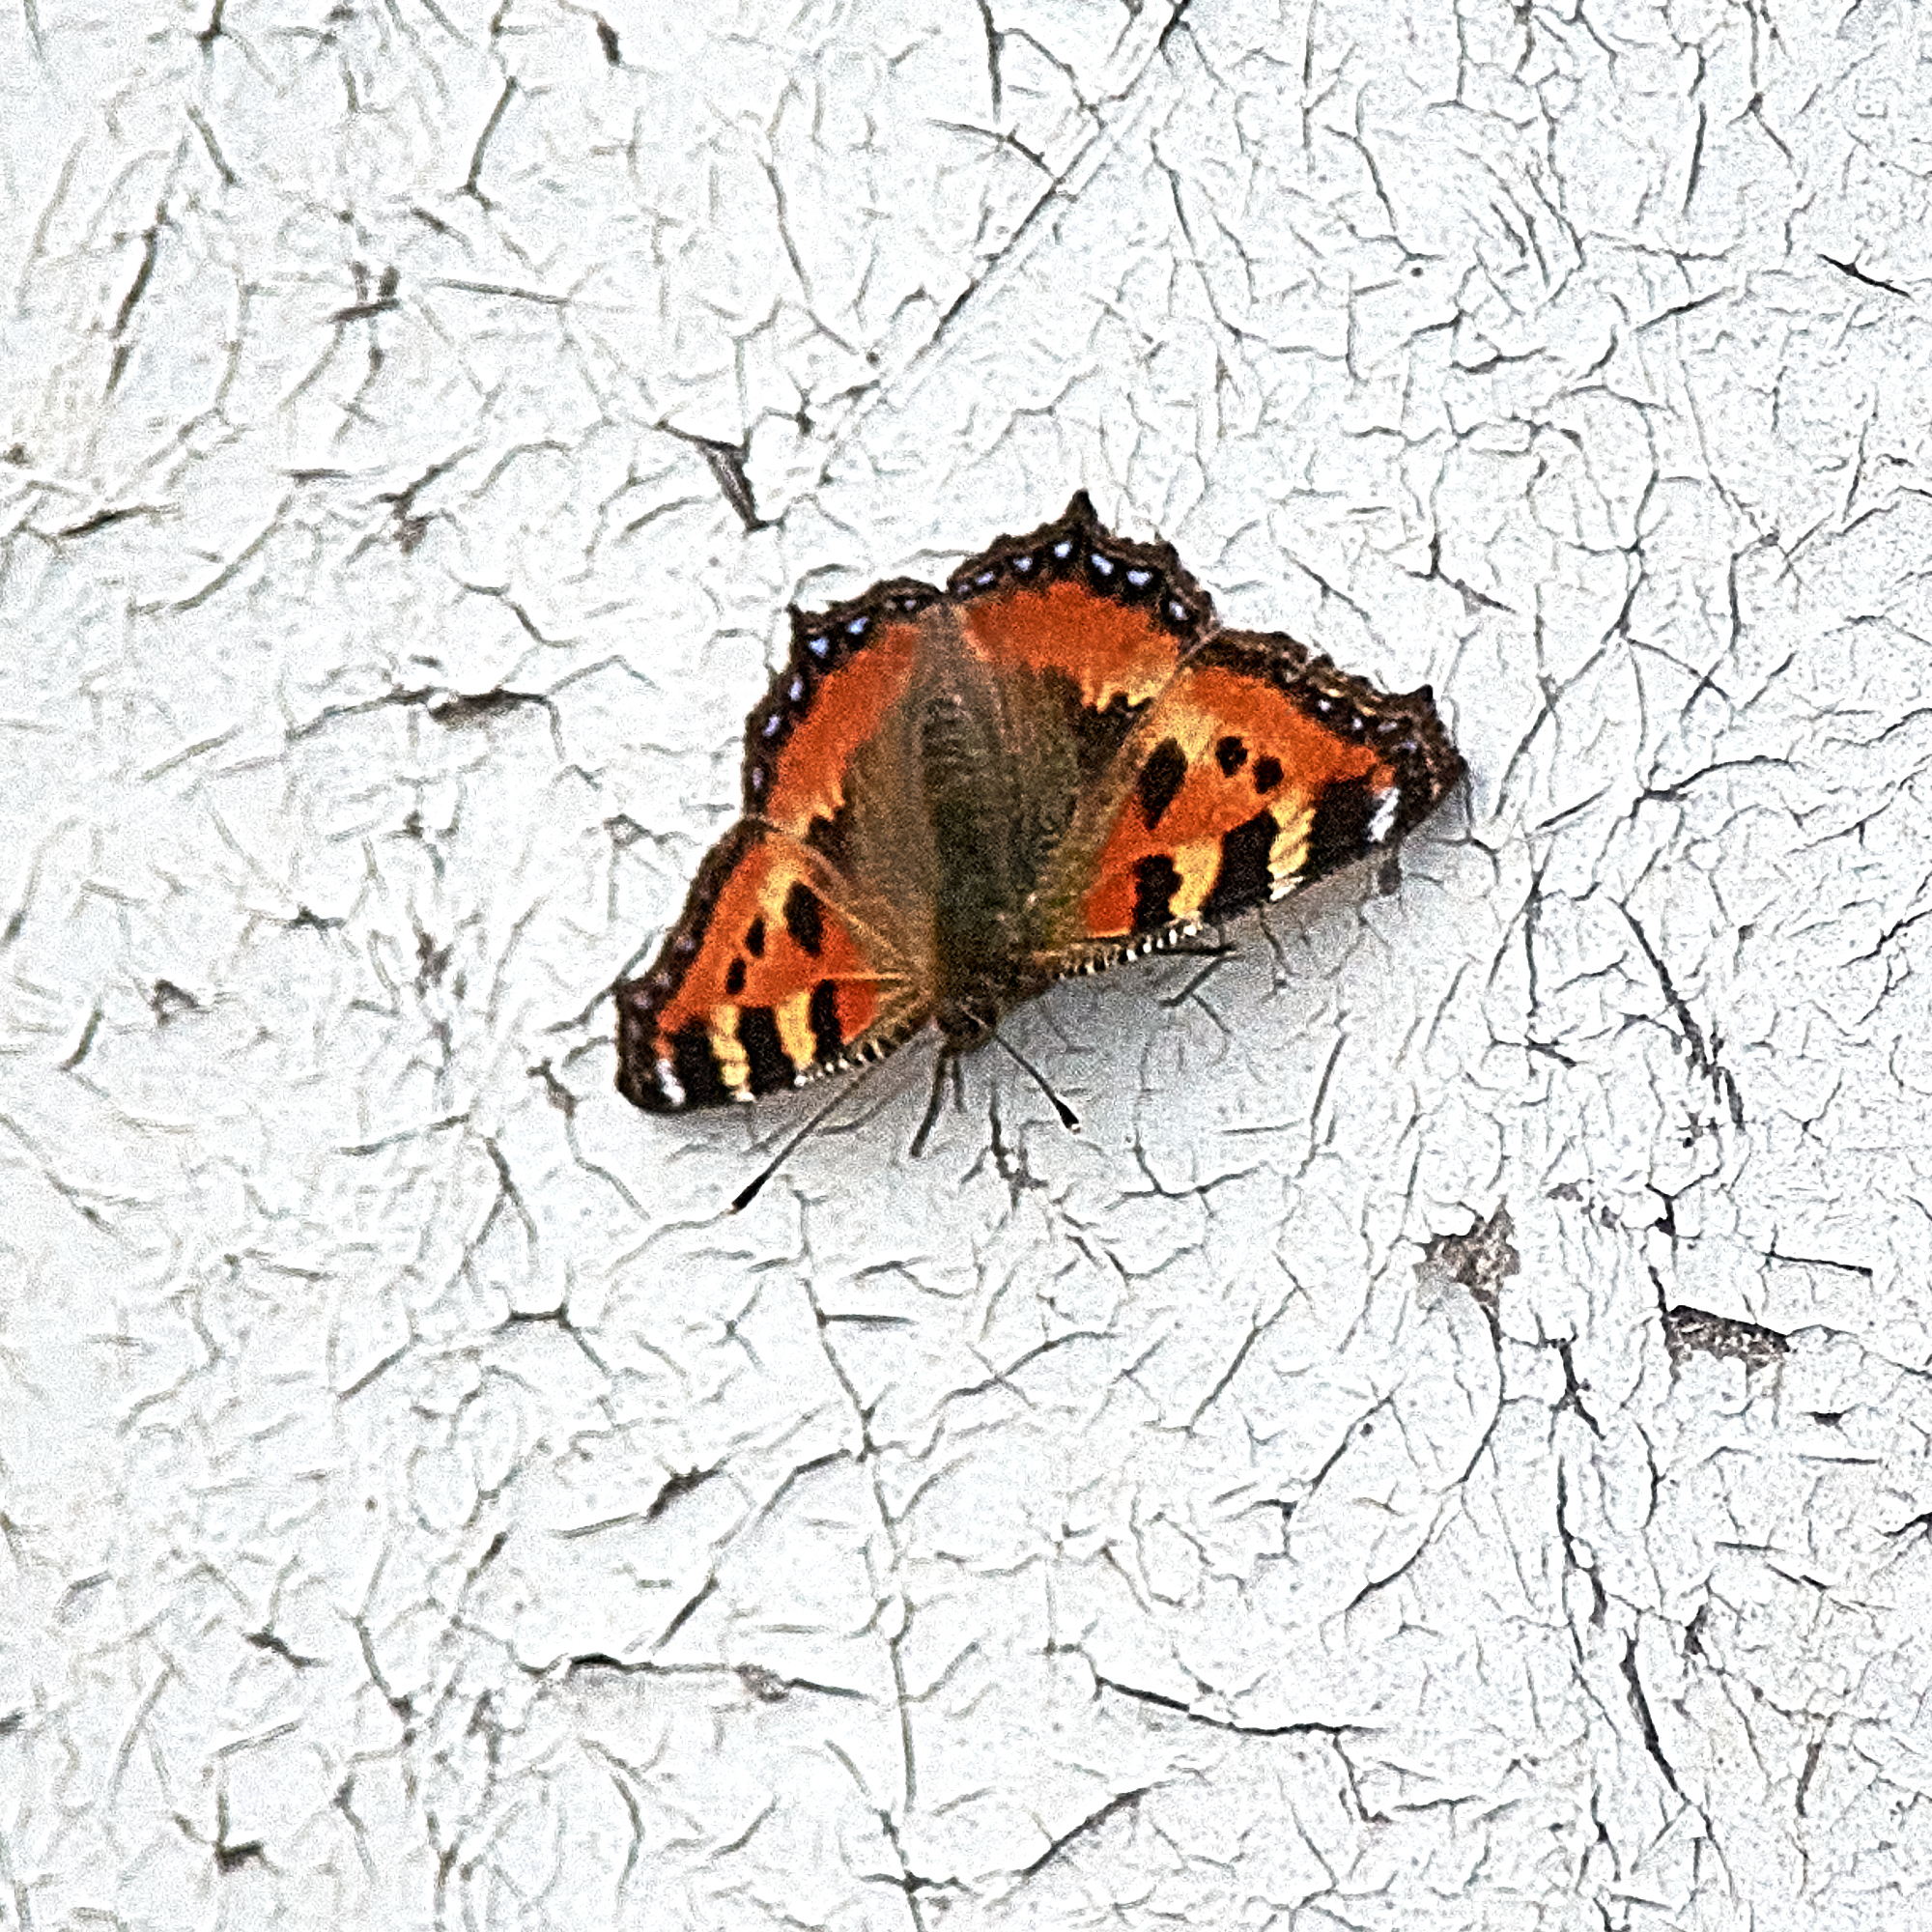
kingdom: Animalia
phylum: Arthropoda
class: Insecta
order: Lepidoptera
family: Nymphalidae
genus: Aglais
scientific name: Aglais urticae
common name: Small tortoiseshell
